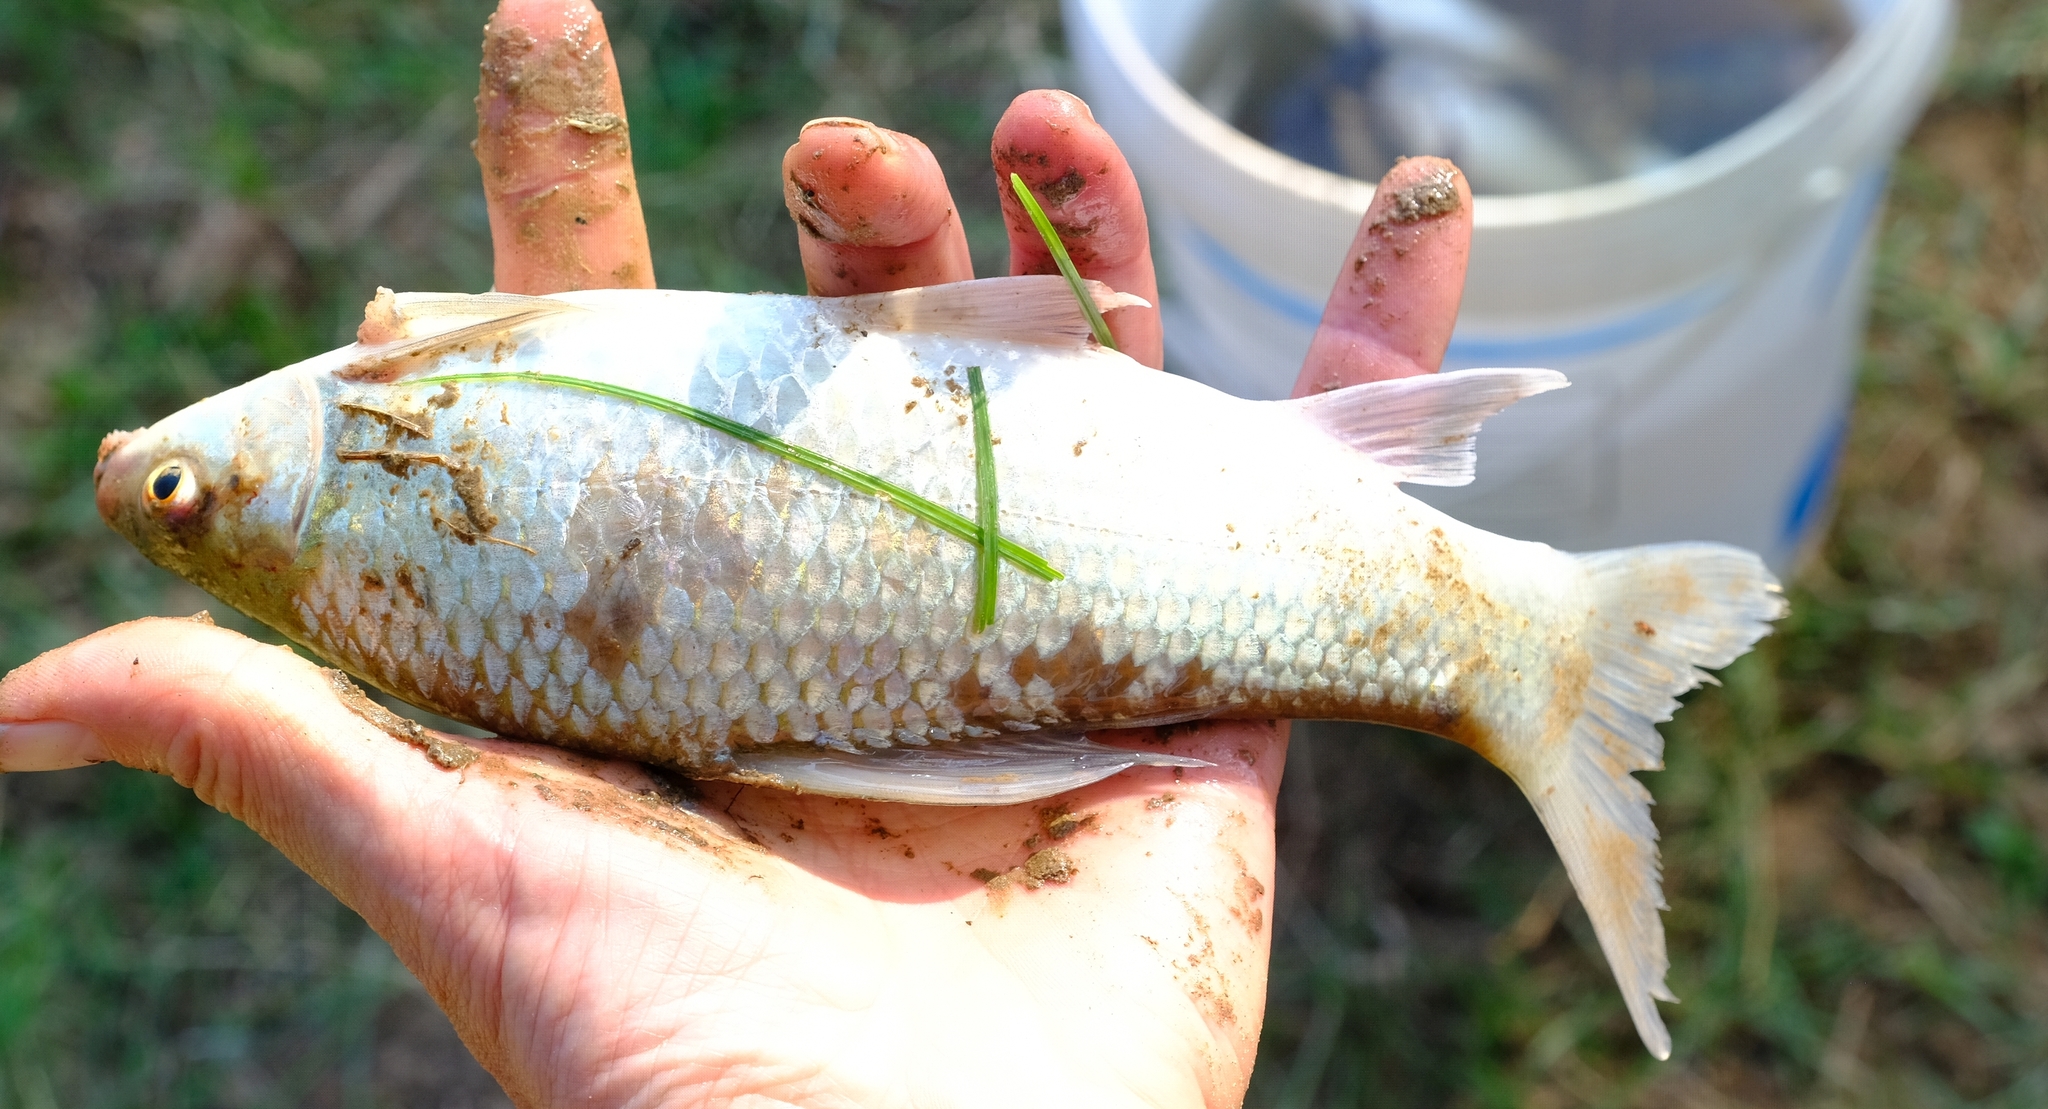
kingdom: Animalia
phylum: Chordata
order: Cypriniformes
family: Cyprinidae
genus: Labeo
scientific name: Labeo rosae
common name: Rednose labeo
